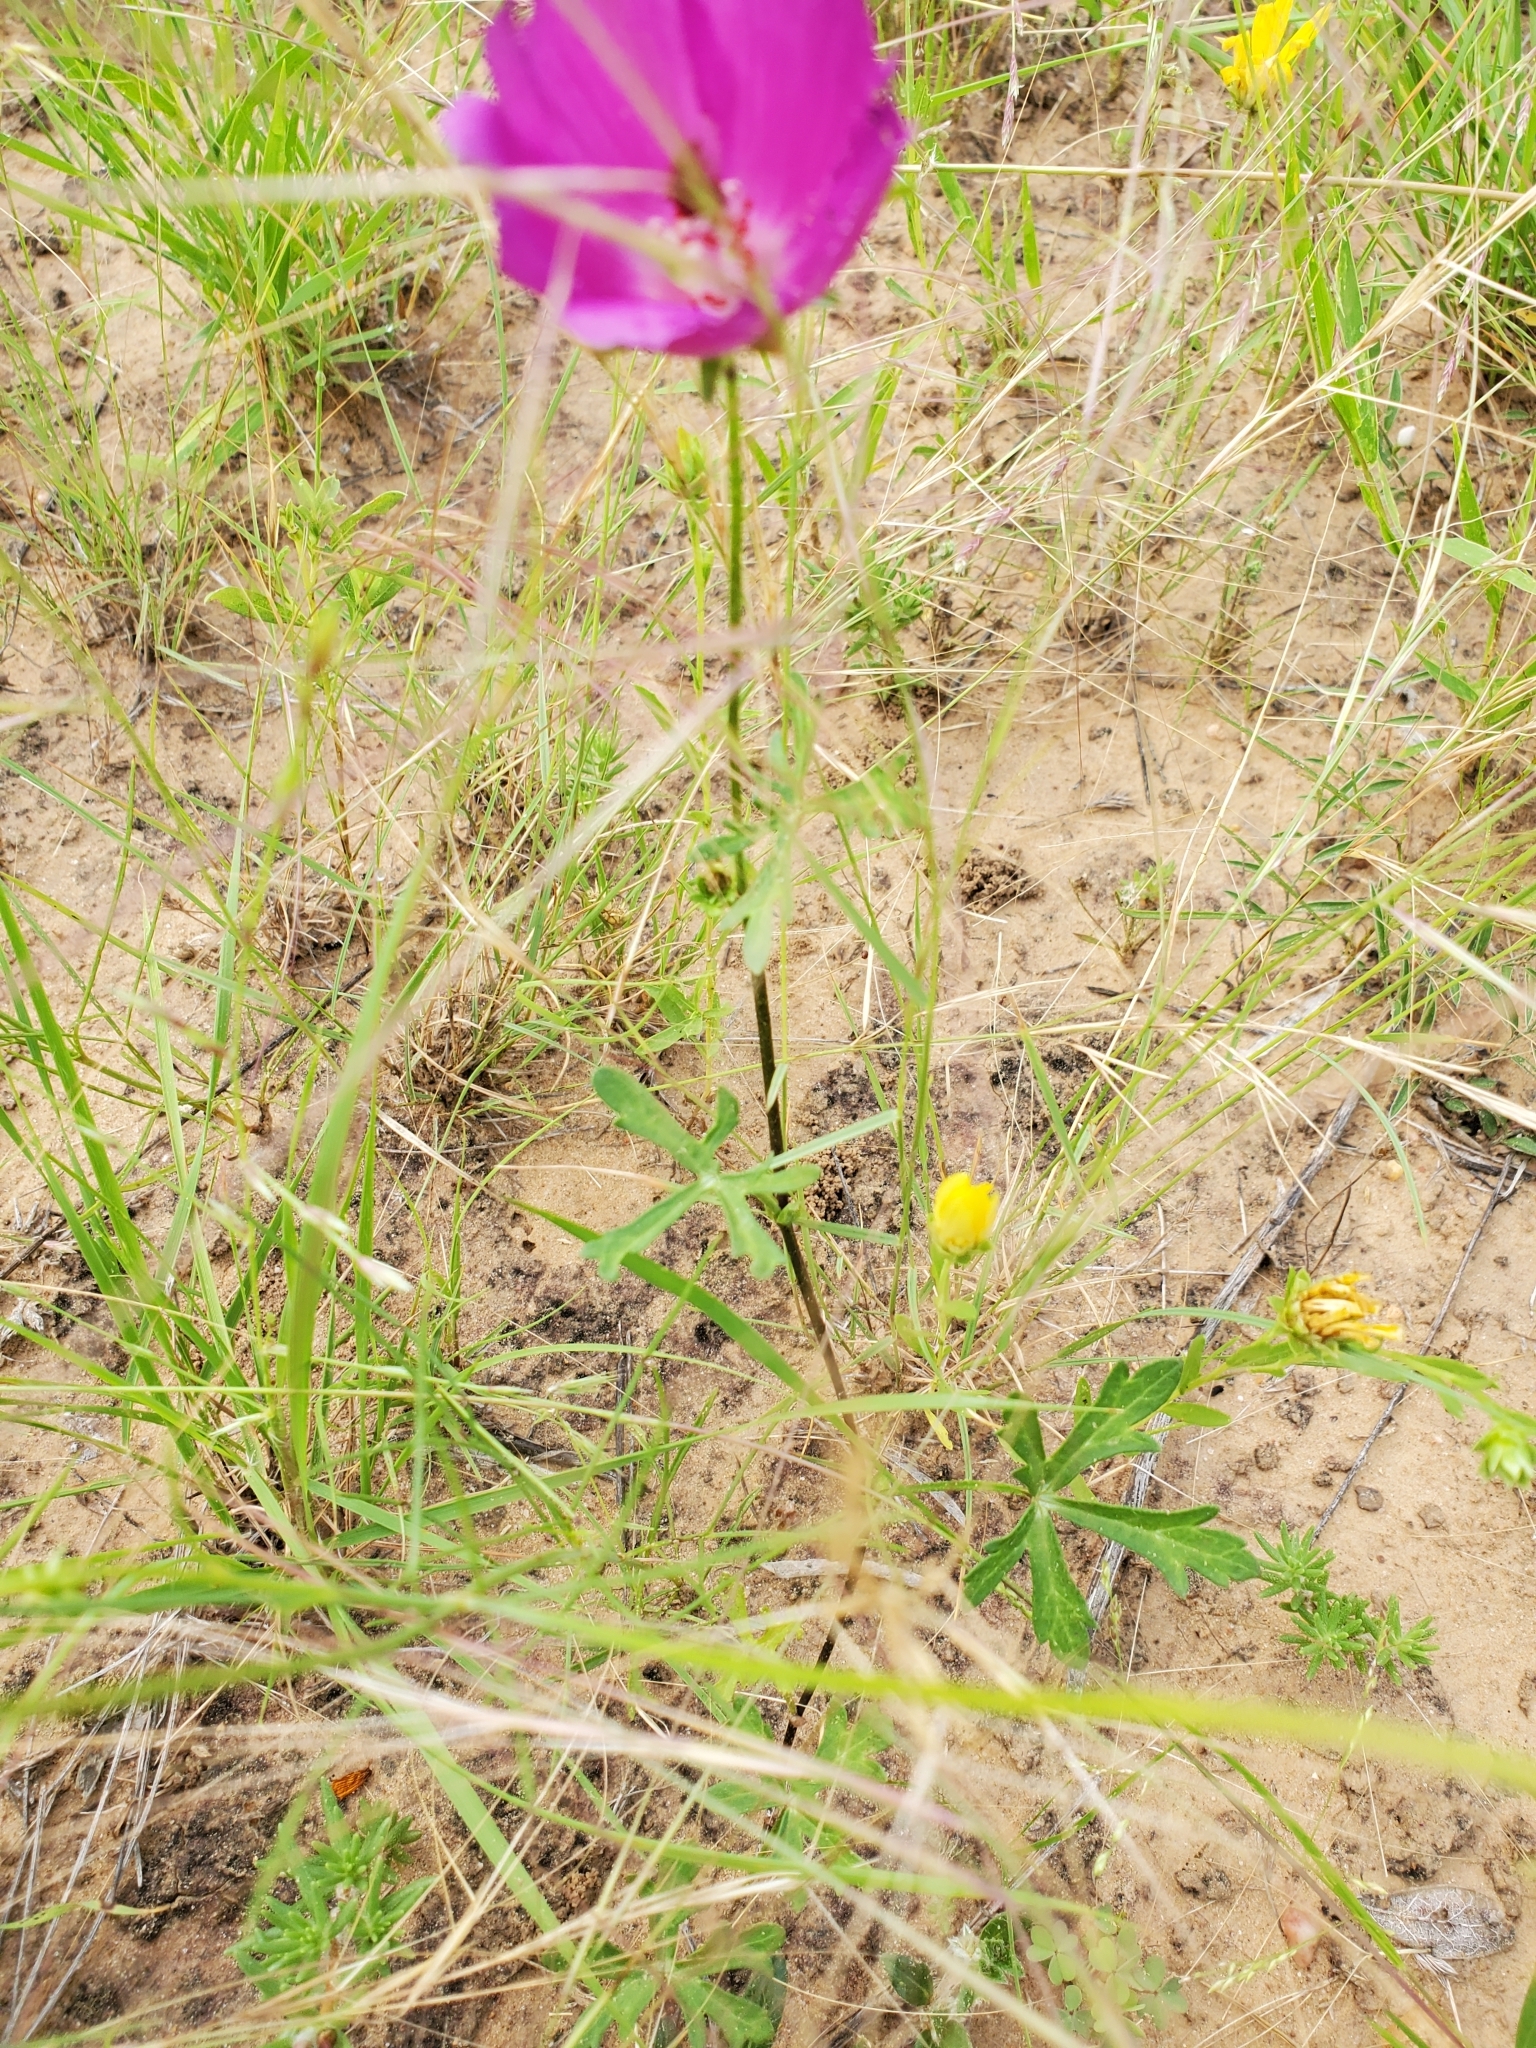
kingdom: Plantae
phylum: Tracheophyta
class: Magnoliopsida
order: Malvales
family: Malvaceae
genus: Callirhoe
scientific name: Callirhoe involucrata
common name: Purple poppy-mallow
